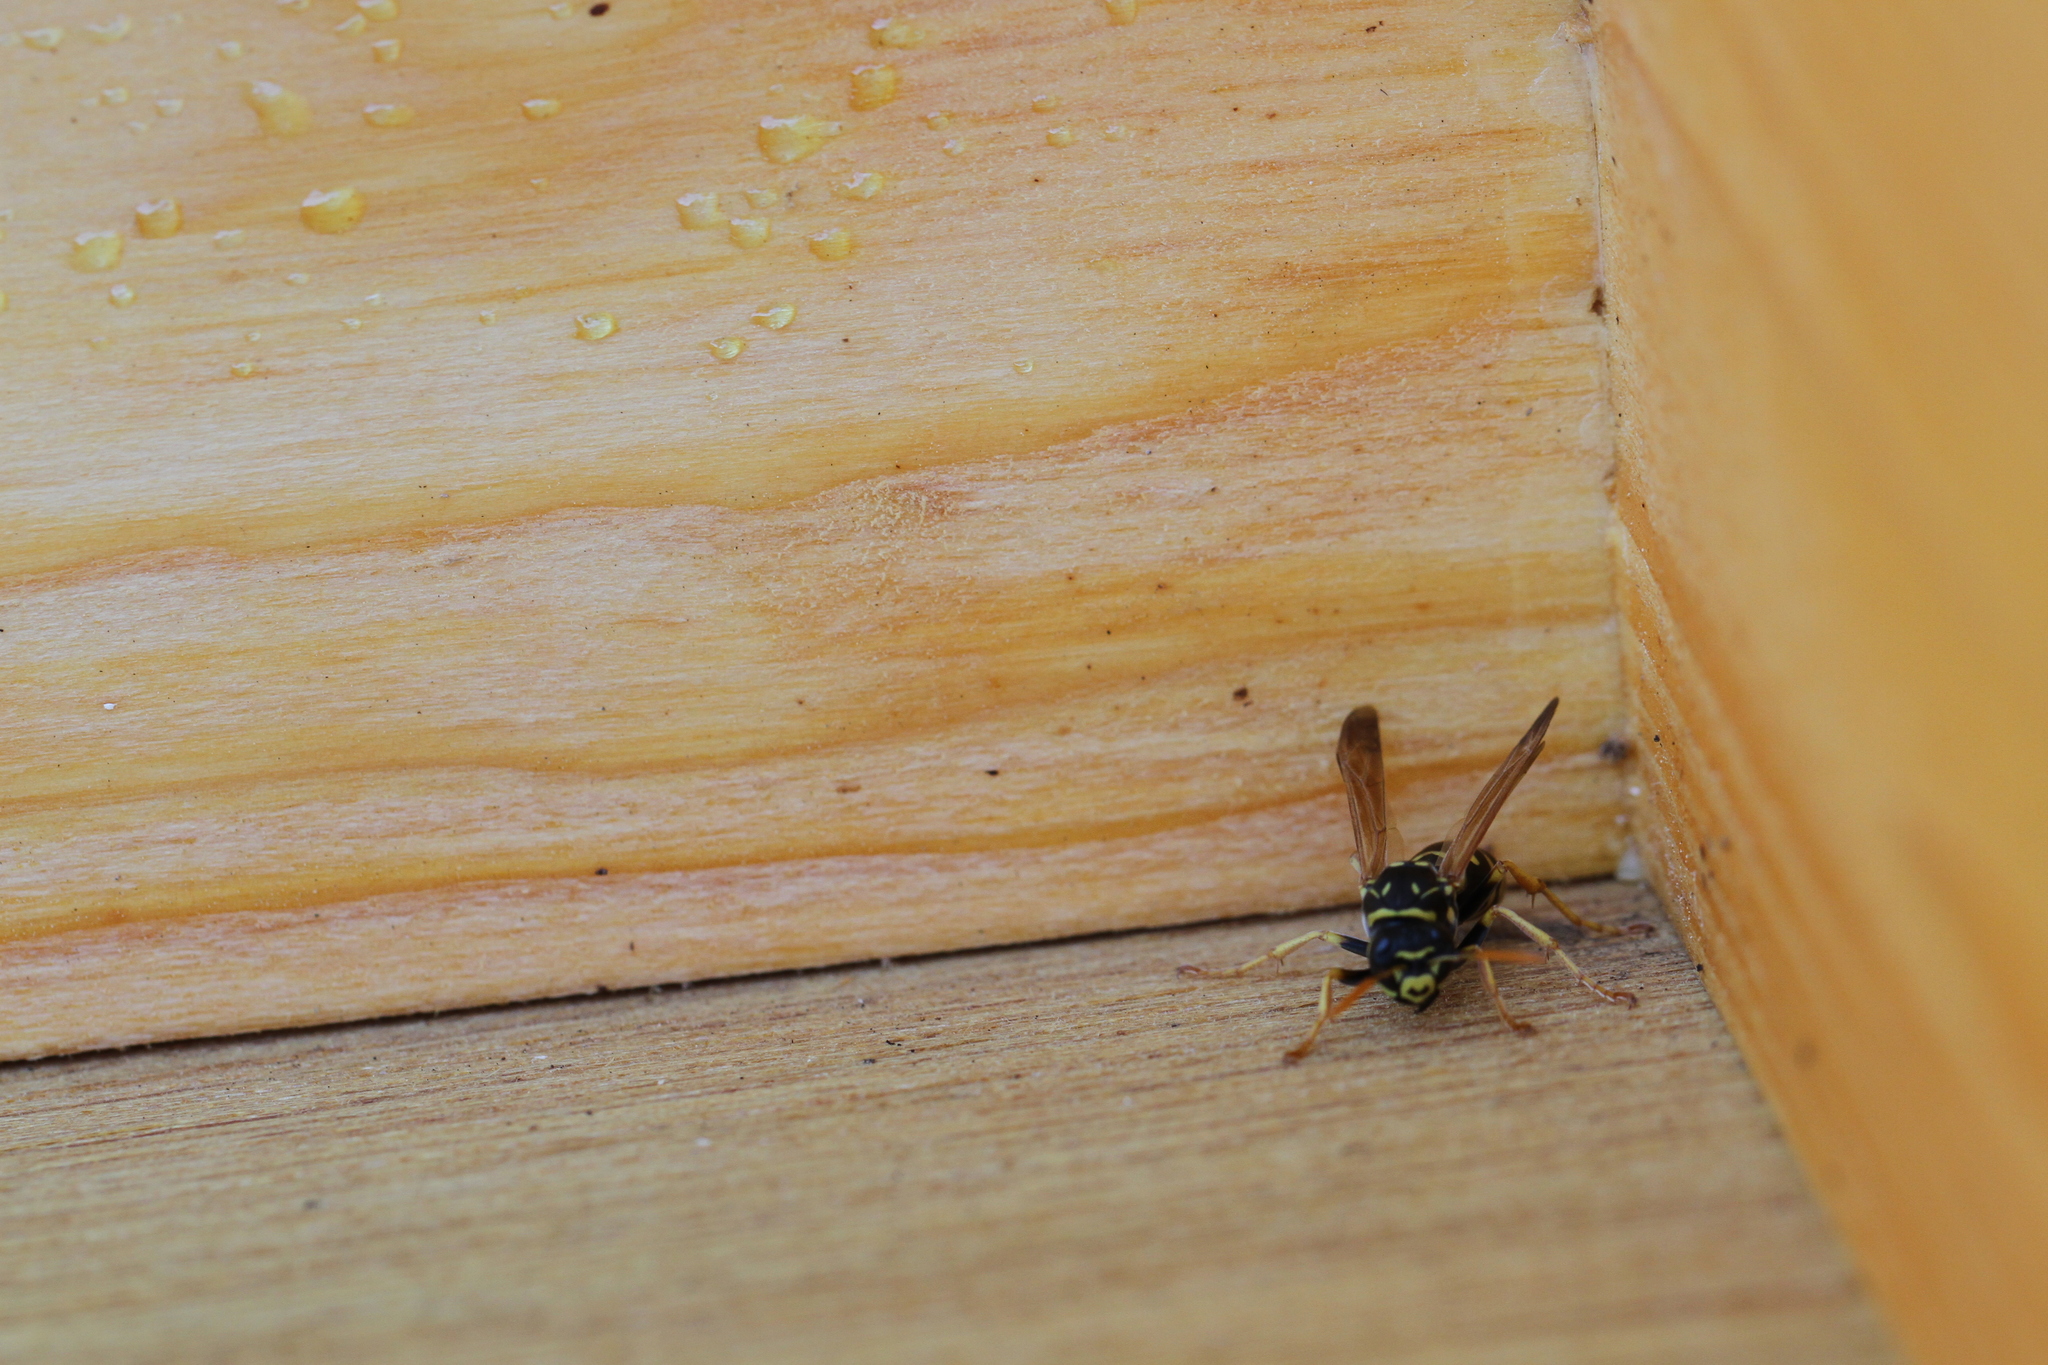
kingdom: Animalia
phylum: Arthropoda
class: Insecta
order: Hymenoptera
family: Eumenidae
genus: Polistes
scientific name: Polistes dominula
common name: Paper wasp
